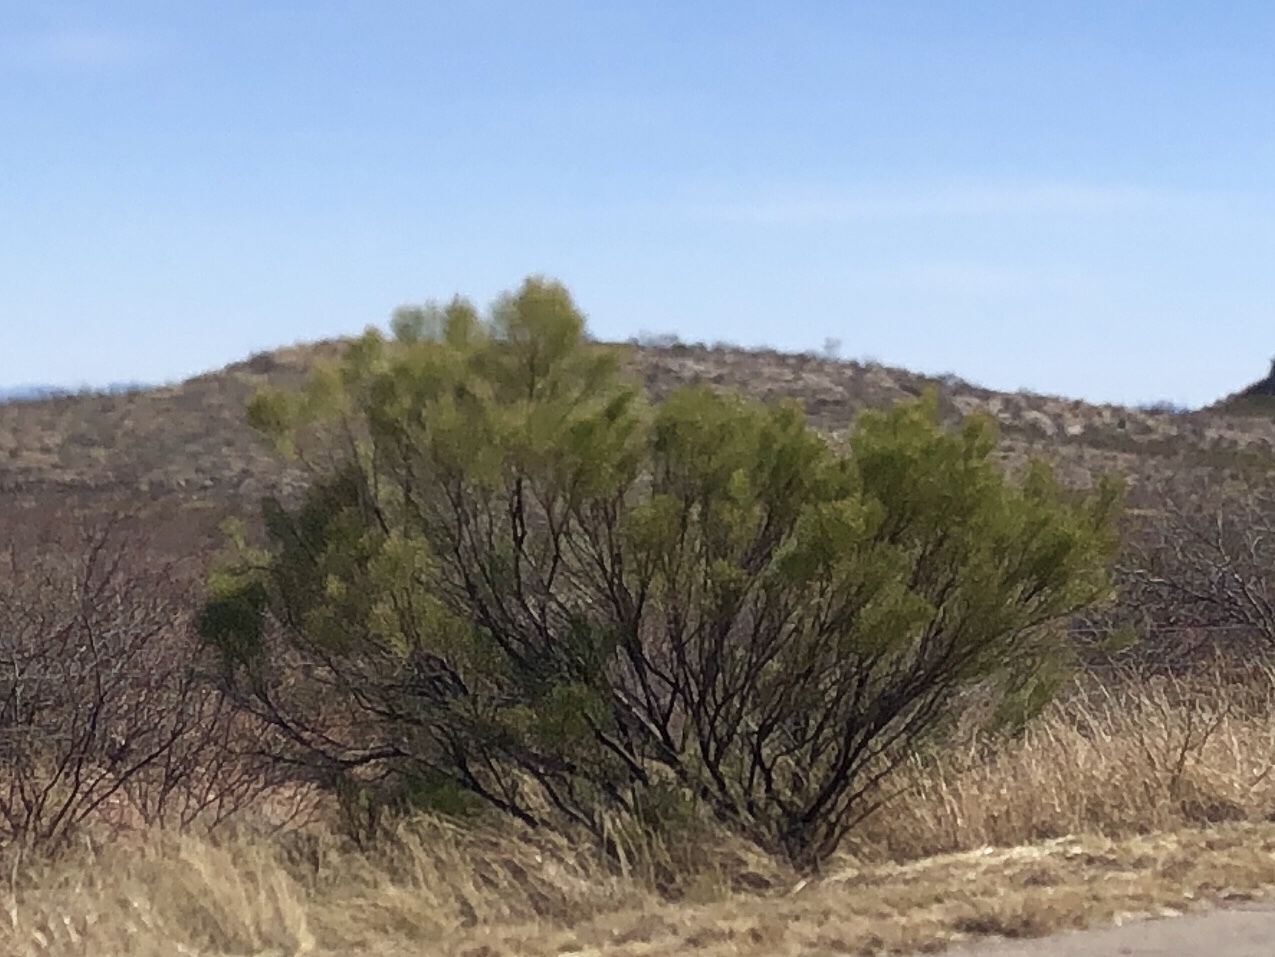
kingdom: Plantae
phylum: Tracheophyta
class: Magnoliopsida
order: Asterales
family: Asteraceae
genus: Baccharis
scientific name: Baccharis sarothroides
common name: Desert-broom
